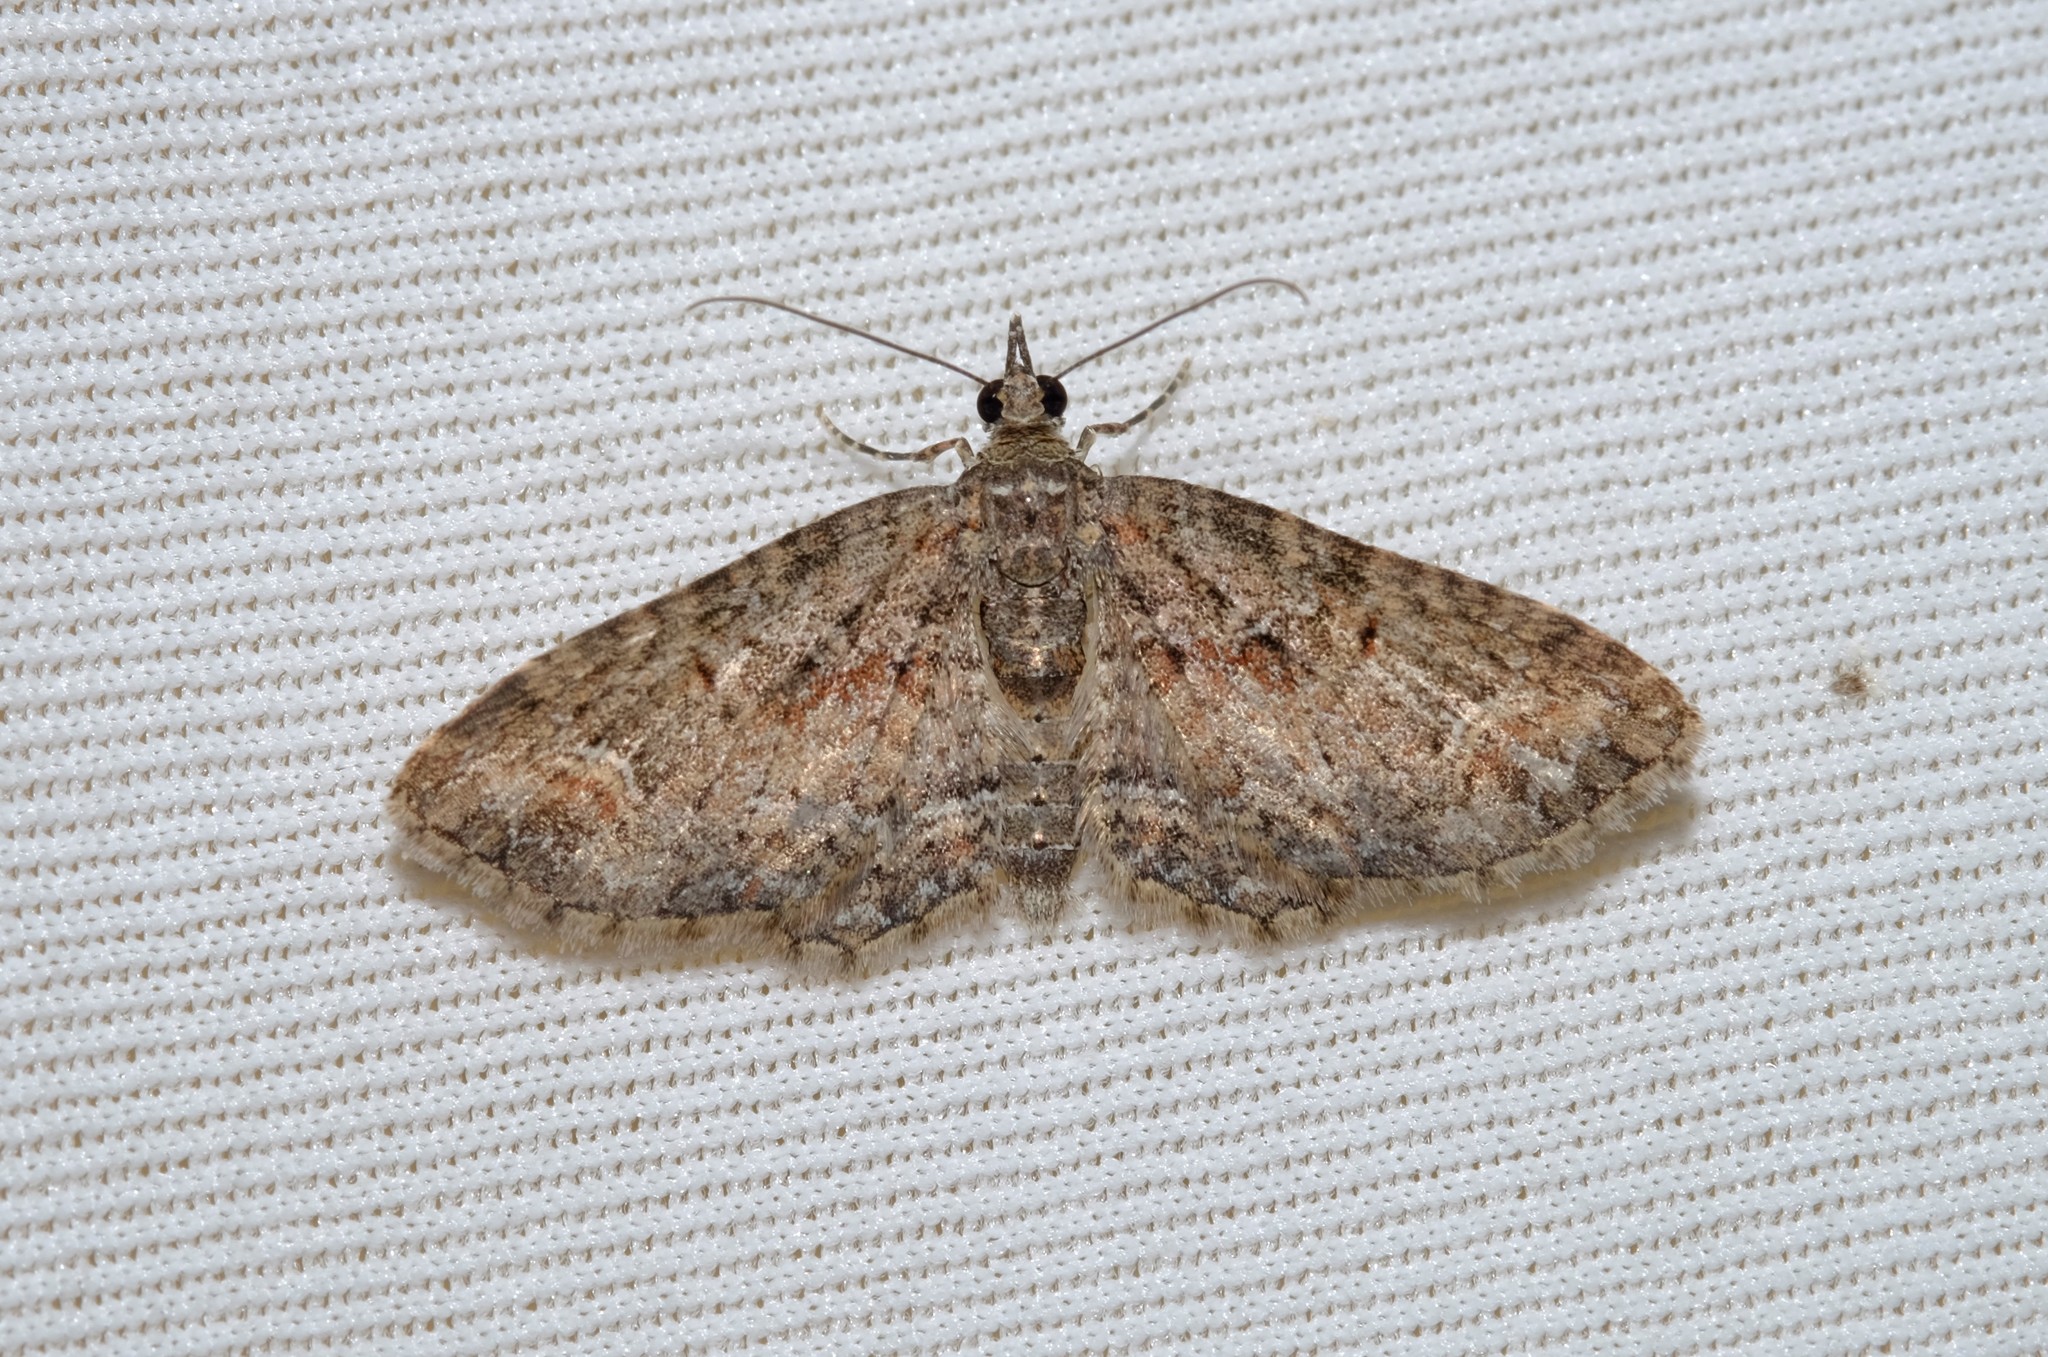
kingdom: Animalia
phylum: Arthropoda
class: Insecta
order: Lepidoptera
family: Geometridae
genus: Pasiphilodes
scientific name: Pasiphilodes testulata
